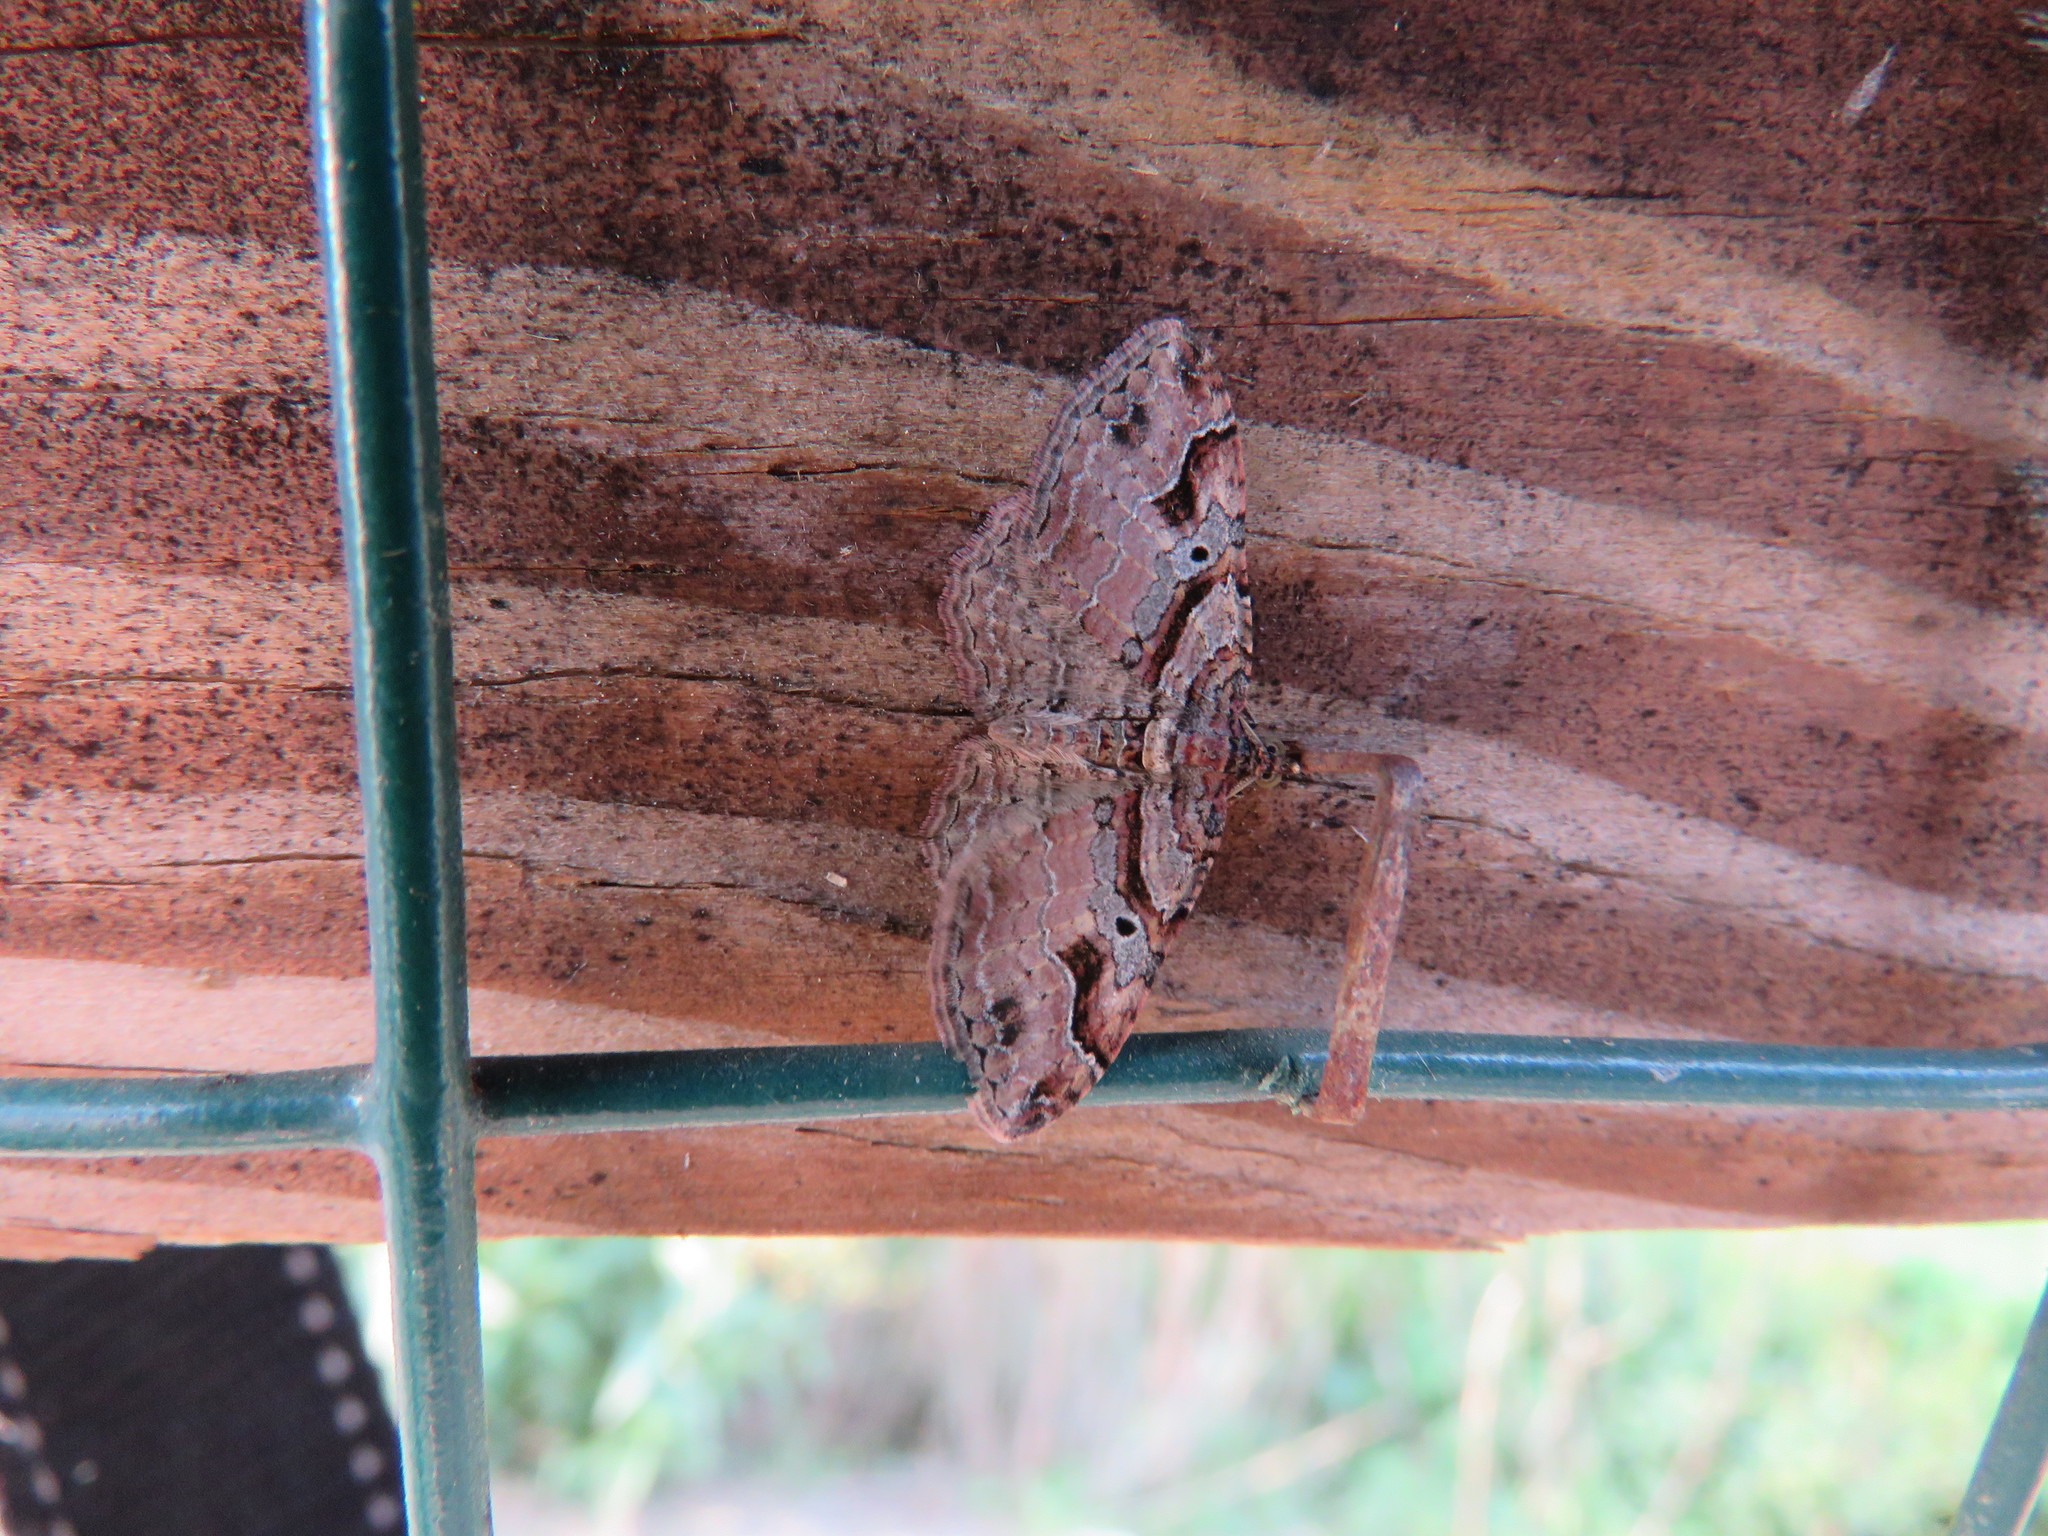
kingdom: Animalia
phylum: Arthropoda
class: Insecta
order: Lepidoptera
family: Geometridae
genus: Costaconvexa
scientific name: Costaconvexa centrostrigaria
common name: Bent-line carpet
